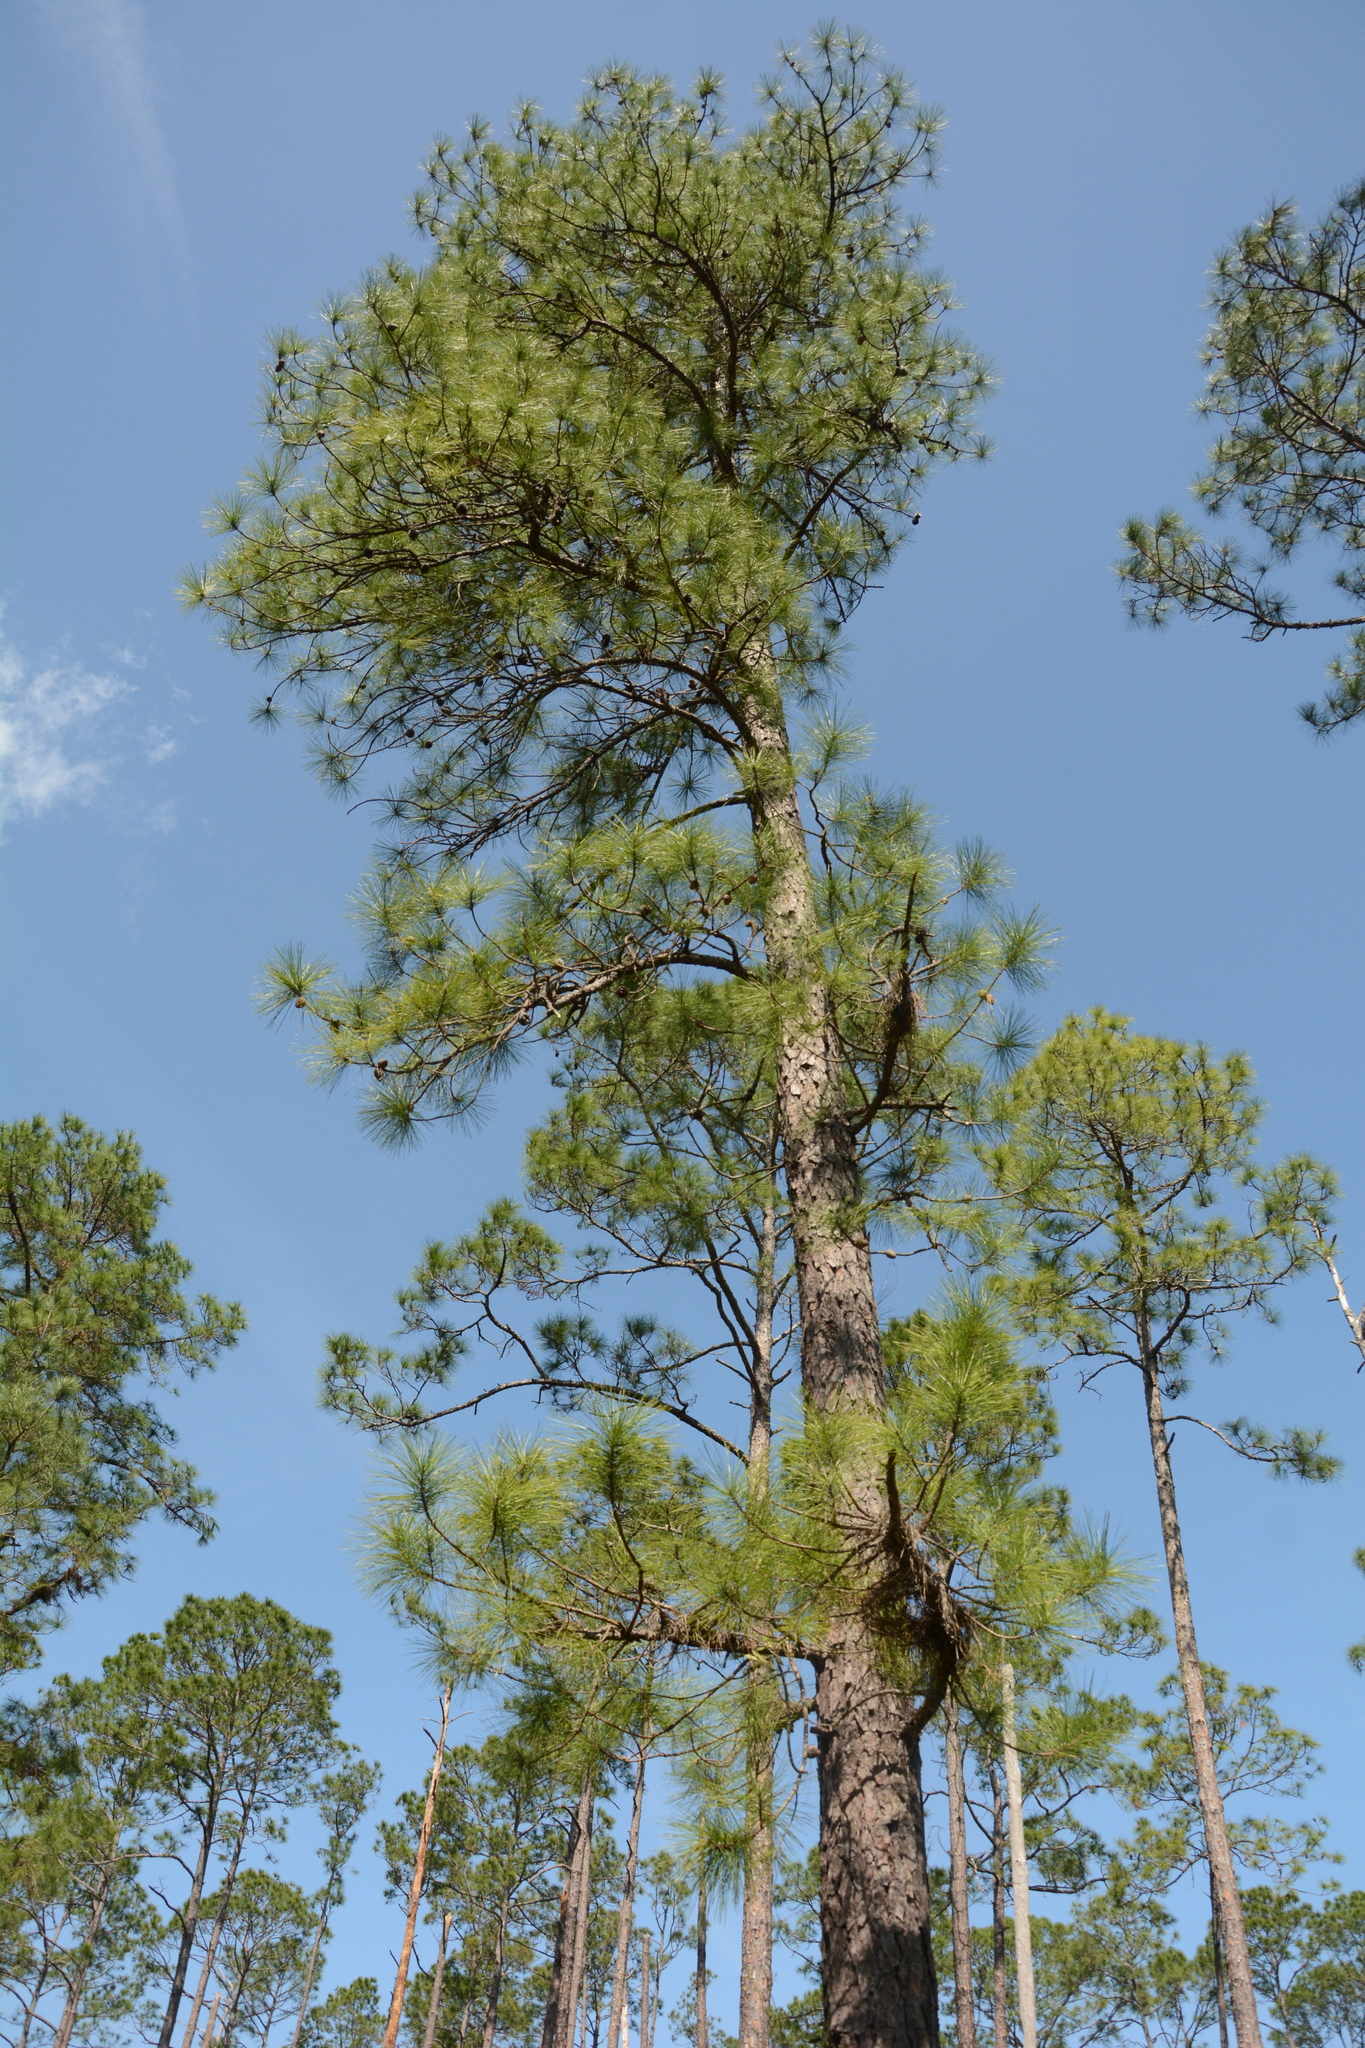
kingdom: Plantae
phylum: Tracheophyta
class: Pinopsida
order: Pinales
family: Pinaceae
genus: Pinus
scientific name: Pinus serotina
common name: Marsh pine
